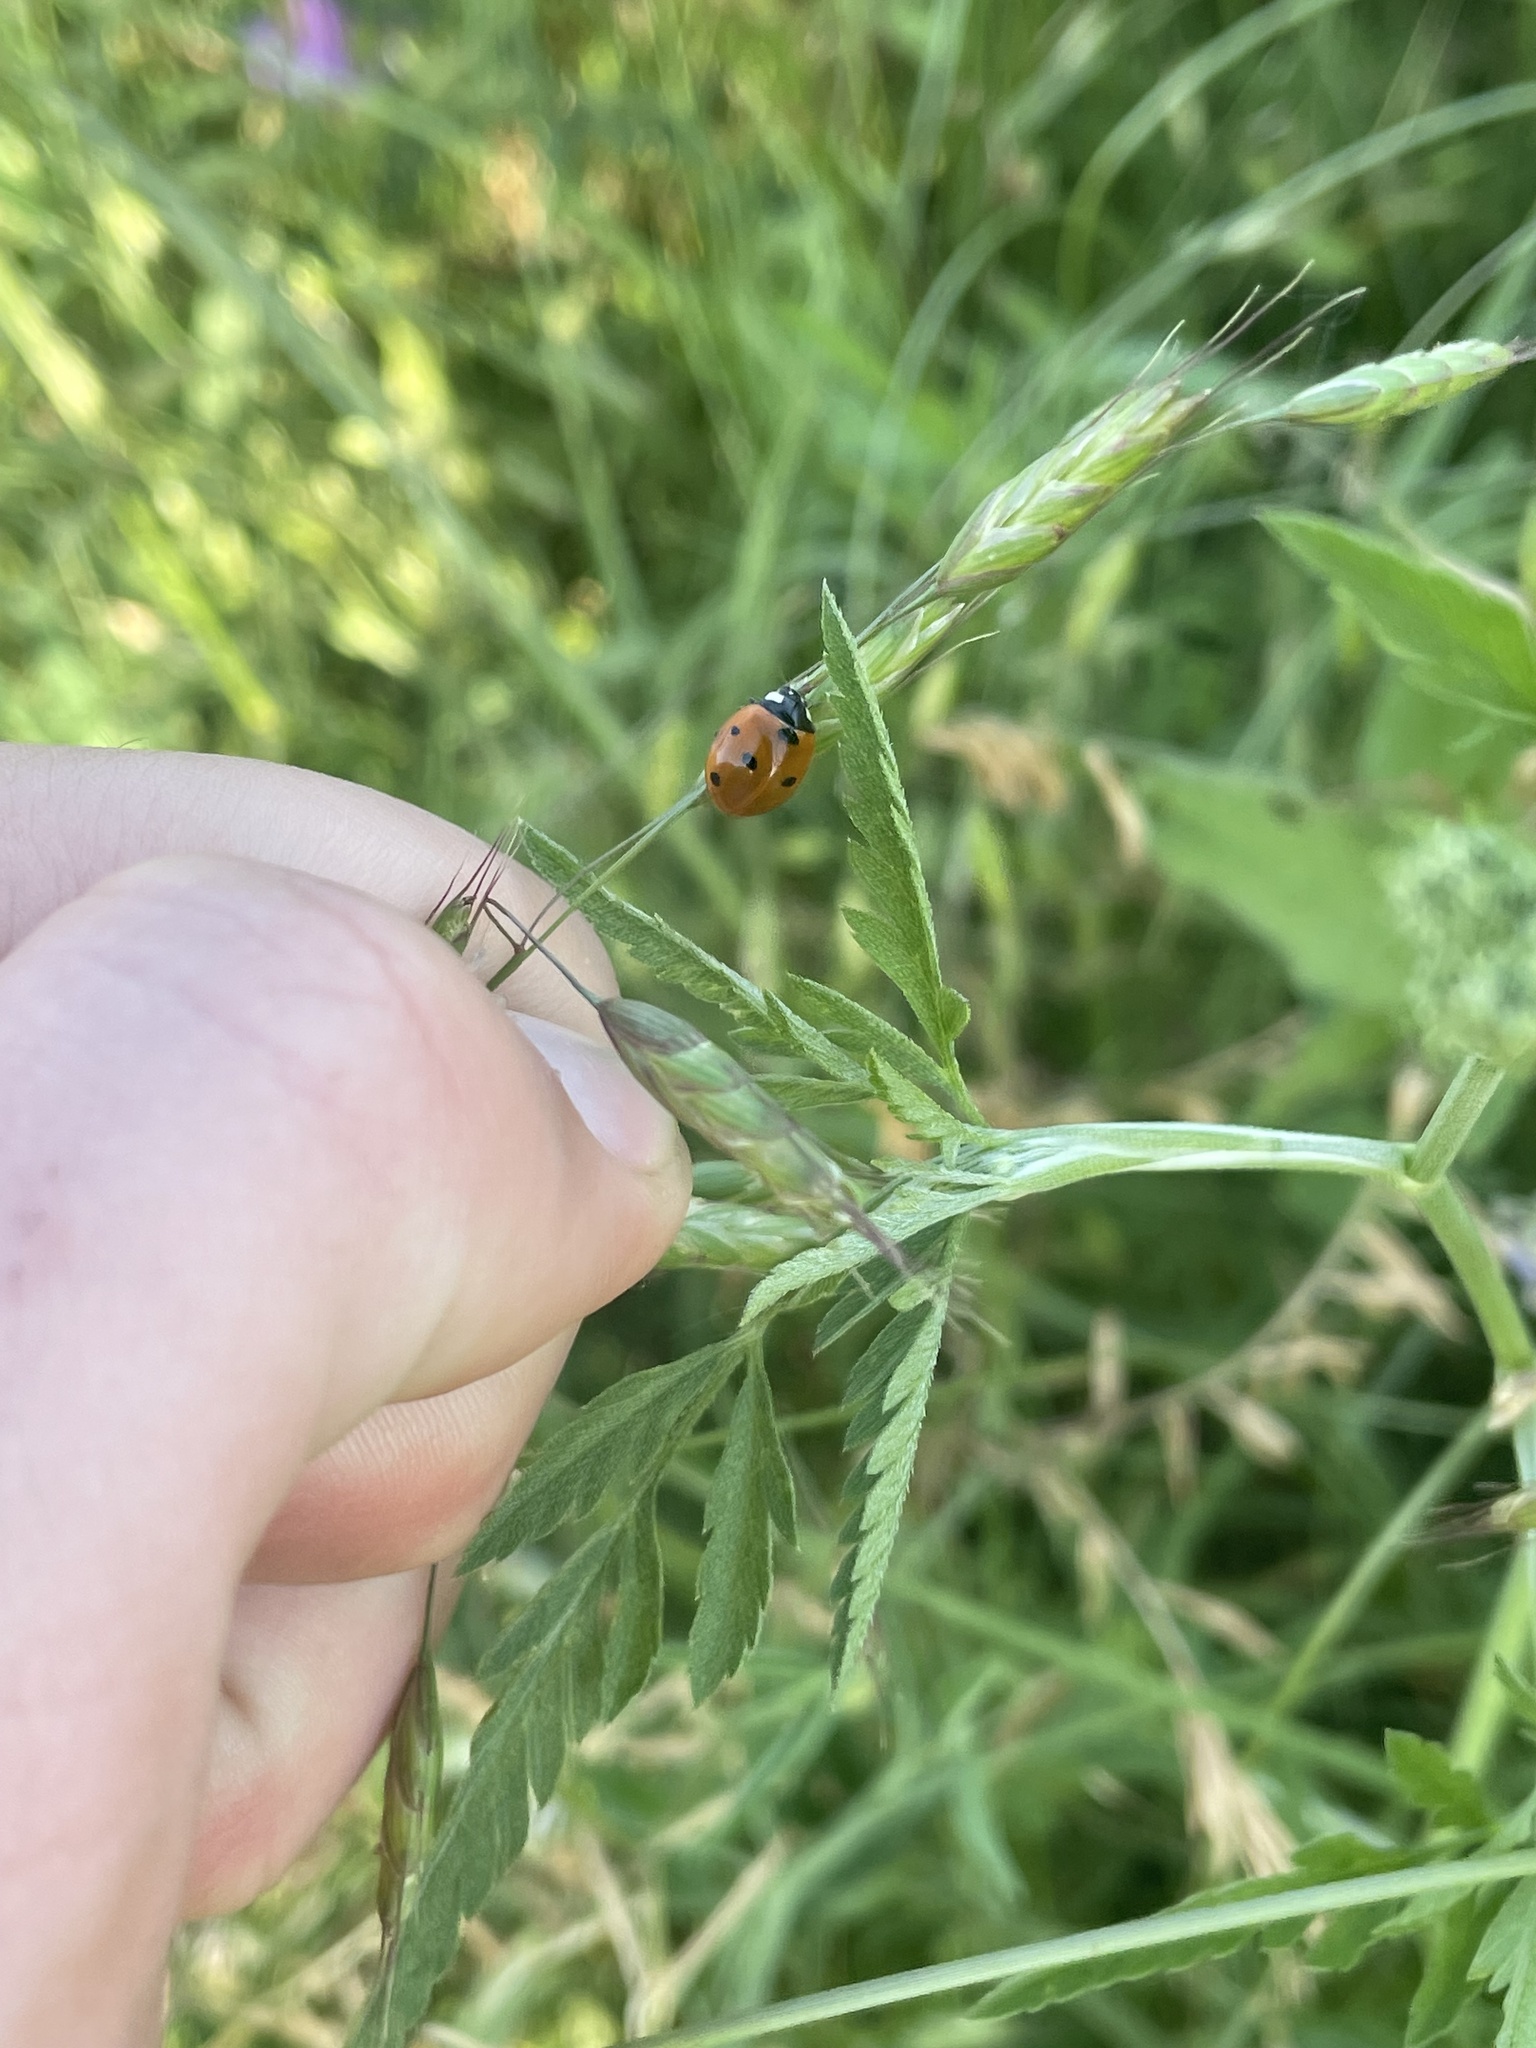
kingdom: Animalia
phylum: Arthropoda
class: Insecta
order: Coleoptera
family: Coccinellidae
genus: Coccinella
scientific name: Coccinella septempunctata
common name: Sevenspotted lady beetle
